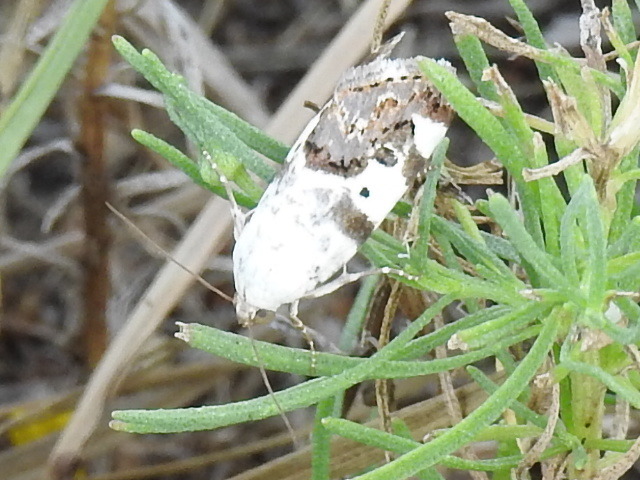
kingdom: Animalia
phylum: Arthropoda
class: Insecta
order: Lepidoptera
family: Noctuidae
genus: Acontia
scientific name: Acontia aprica
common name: Nun
